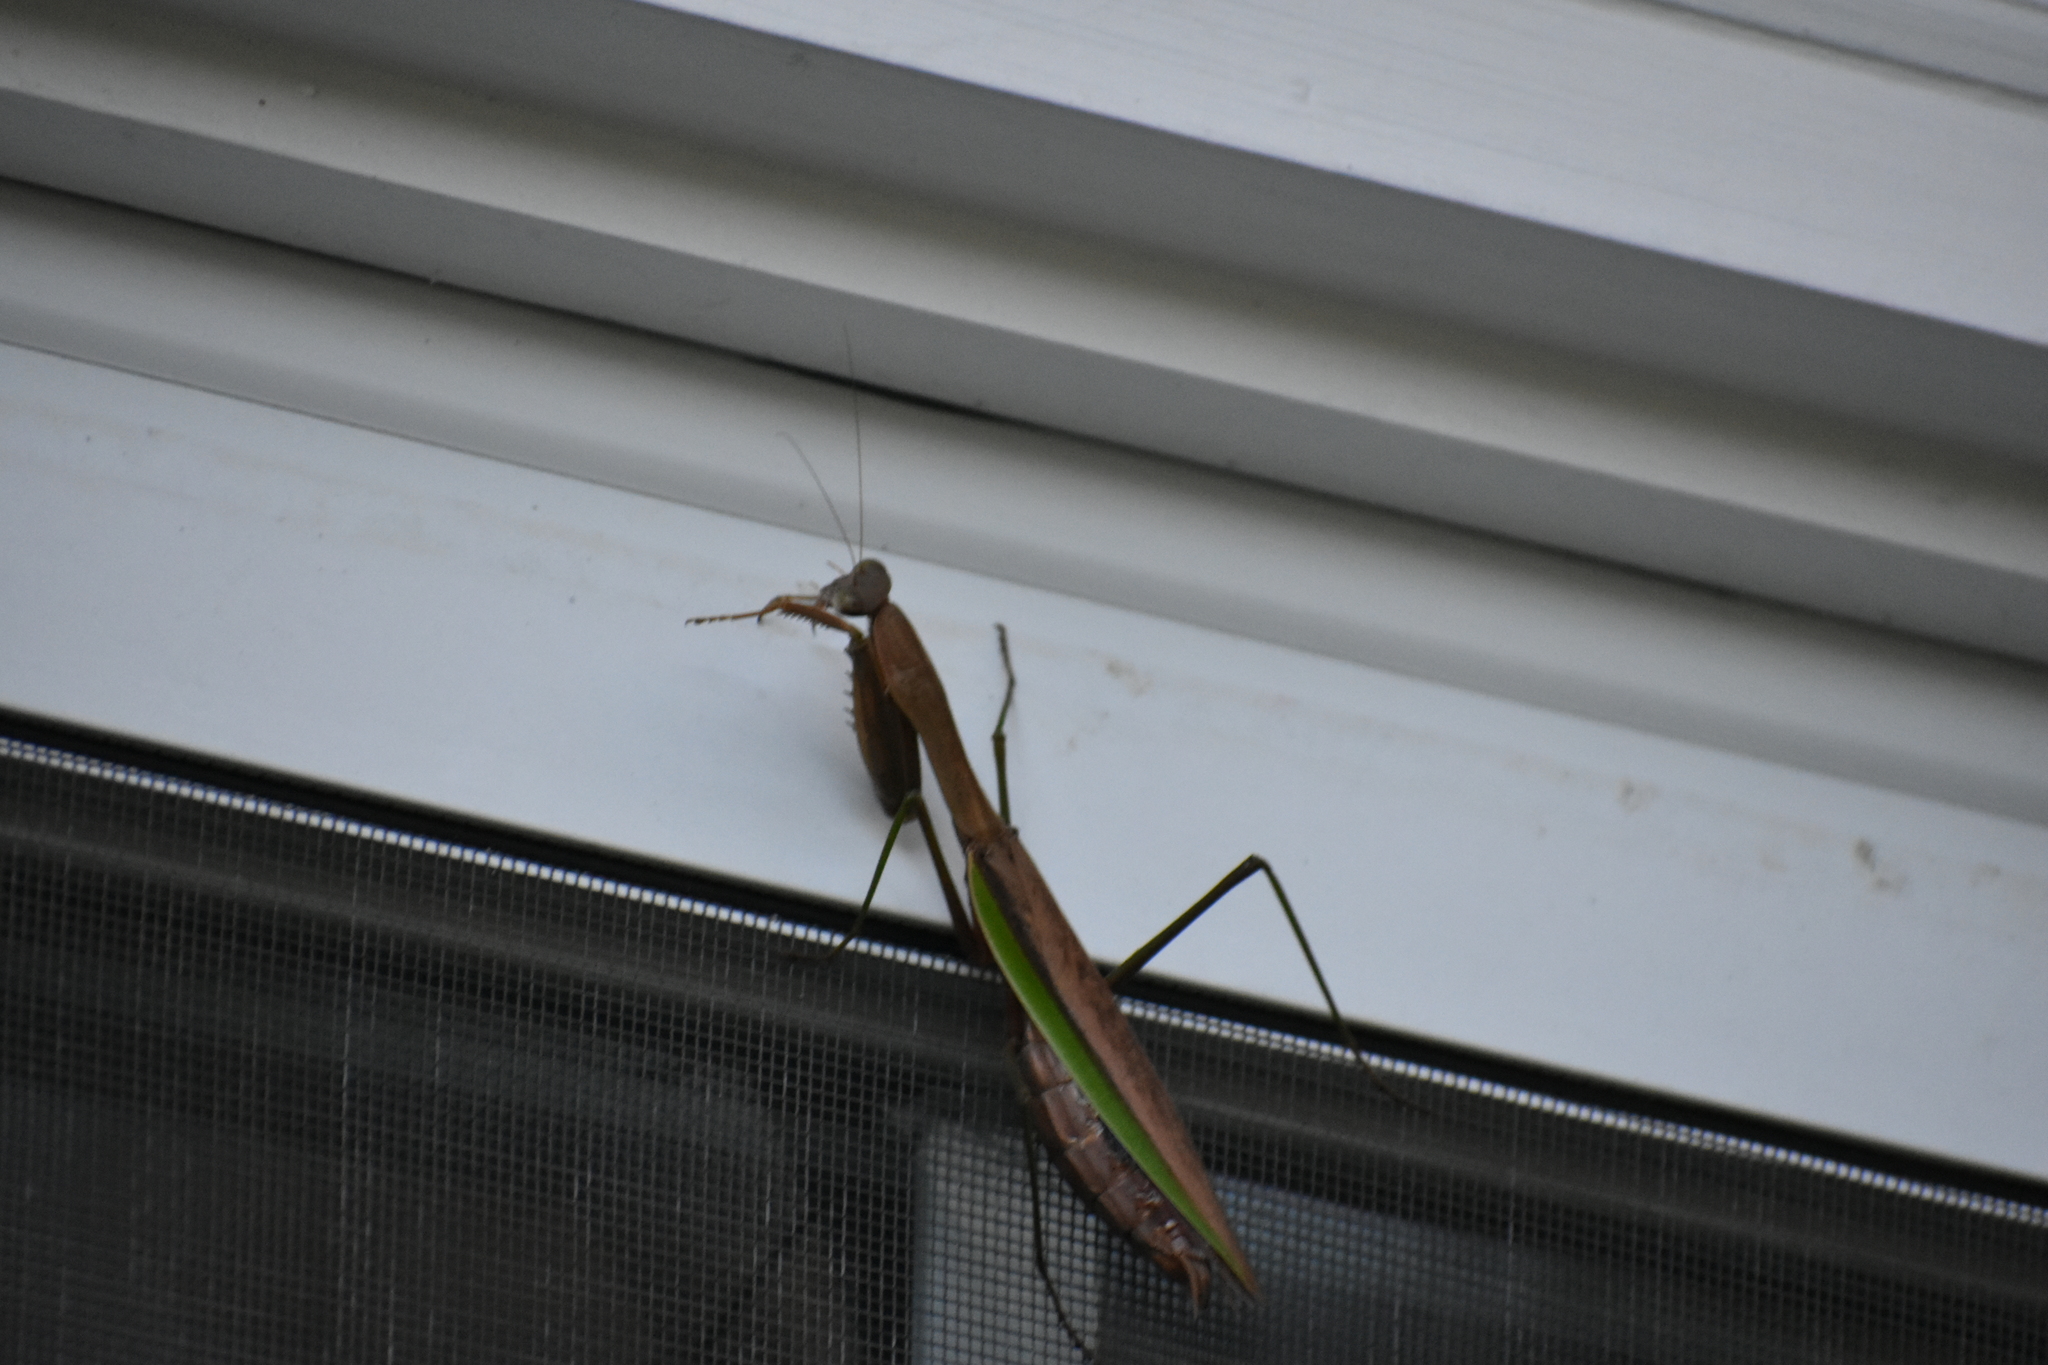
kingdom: Animalia
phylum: Arthropoda
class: Insecta
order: Mantodea
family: Mantidae
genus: Tenodera
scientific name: Tenodera sinensis
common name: Chinese mantis
